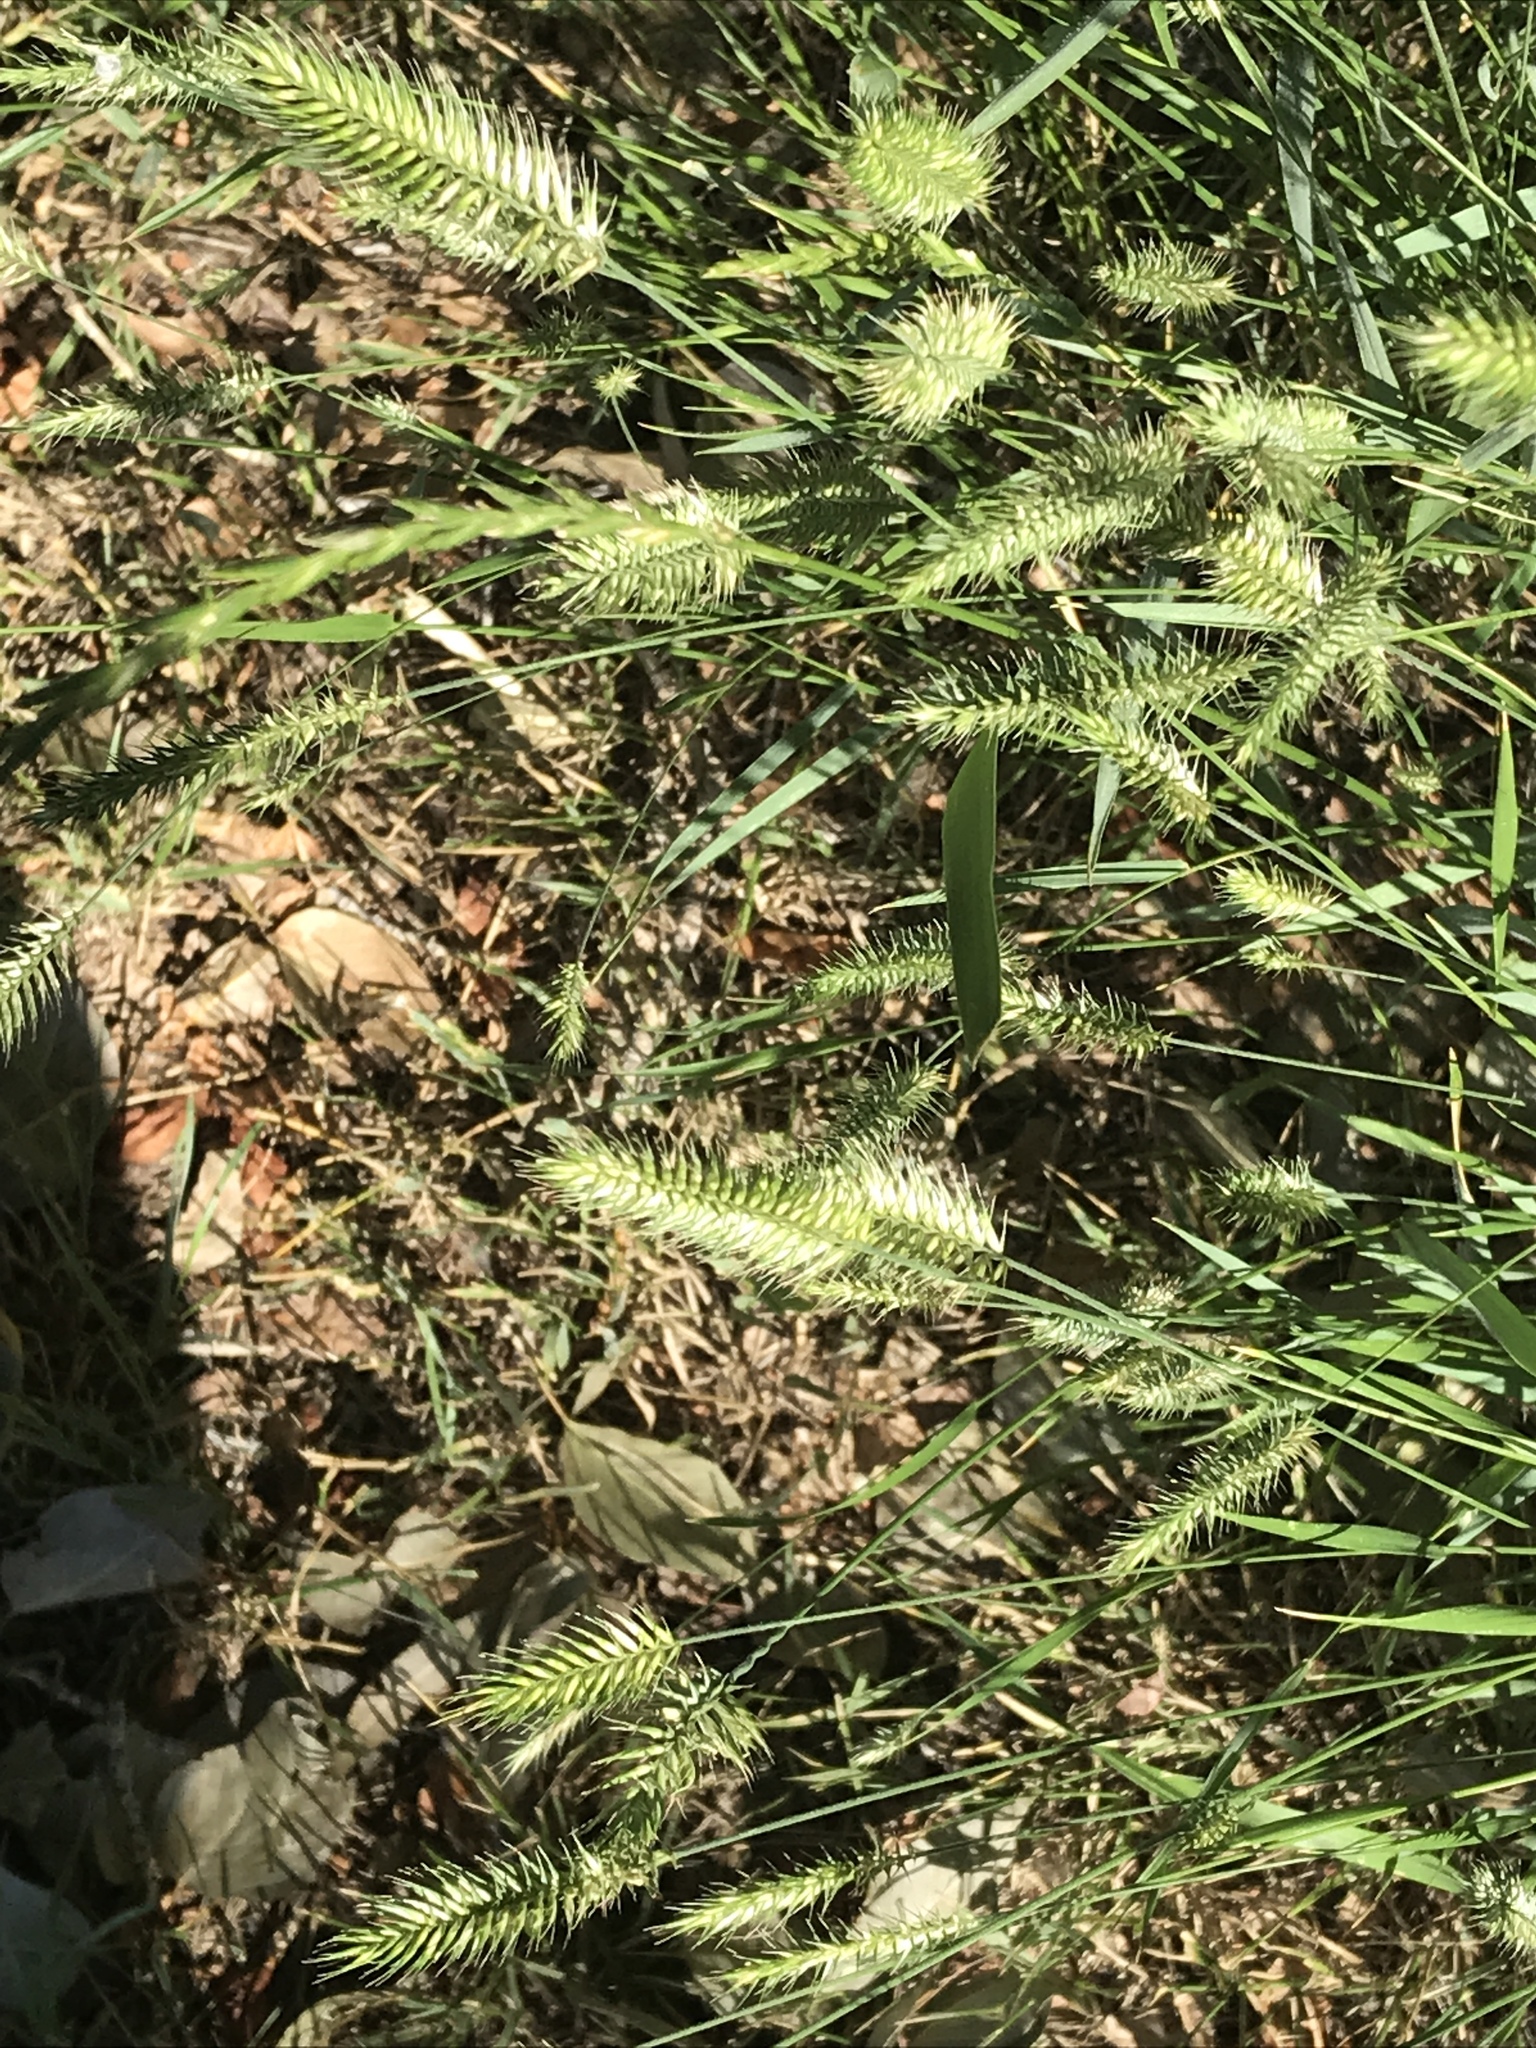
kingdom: Plantae
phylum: Tracheophyta
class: Liliopsida
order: Poales
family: Poaceae
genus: Agropyron
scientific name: Agropyron cristatum
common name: Crested wheatgrass
